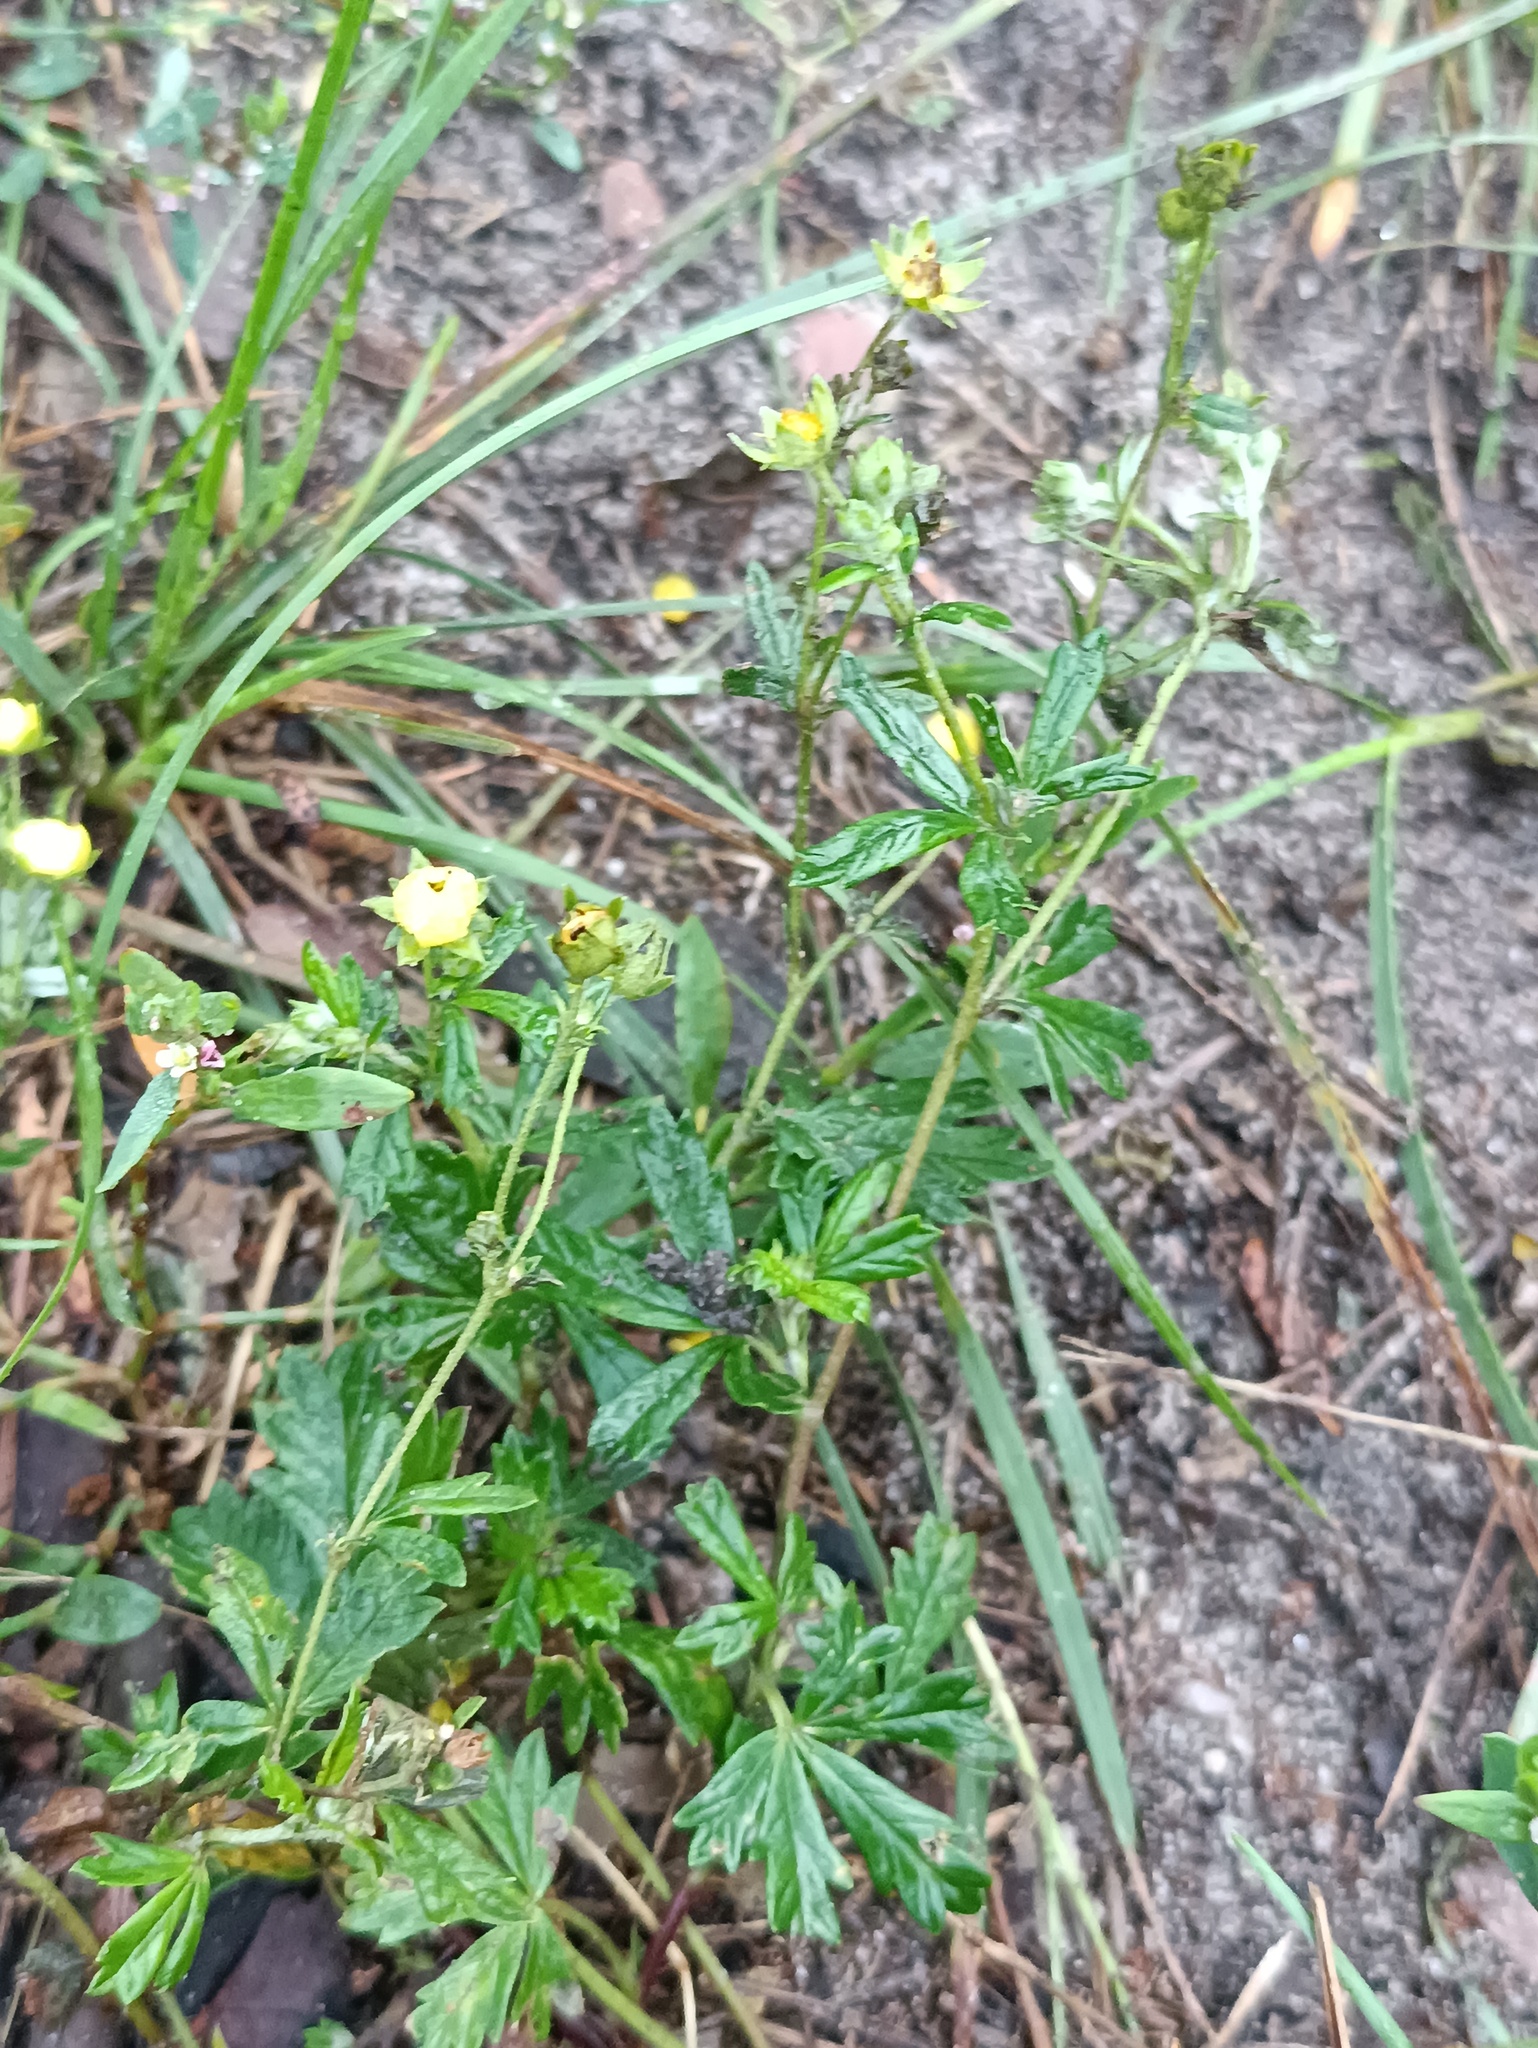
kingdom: Plantae
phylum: Tracheophyta
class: Magnoliopsida
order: Rosales
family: Rosaceae
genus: Potentilla
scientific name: Potentilla argentea
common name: Hoary cinquefoil
